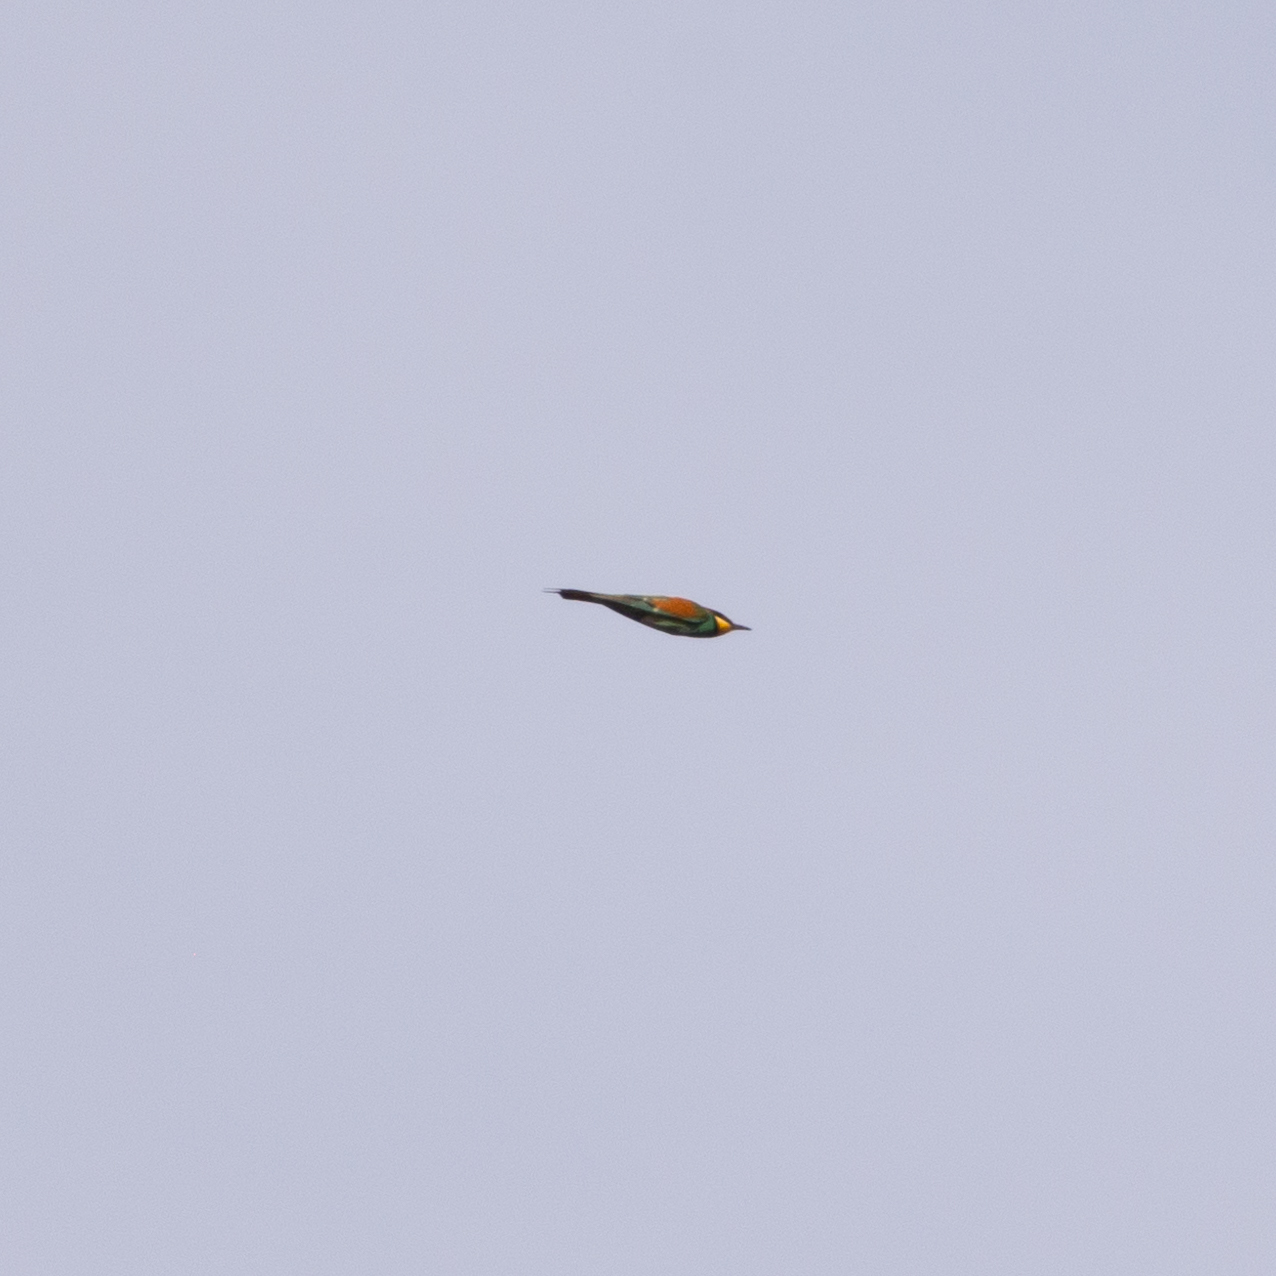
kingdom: Animalia
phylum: Chordata
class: Aves
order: Coraciiformes
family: Meropidae
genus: Merops
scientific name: Merops apiaster
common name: European bee-eater
